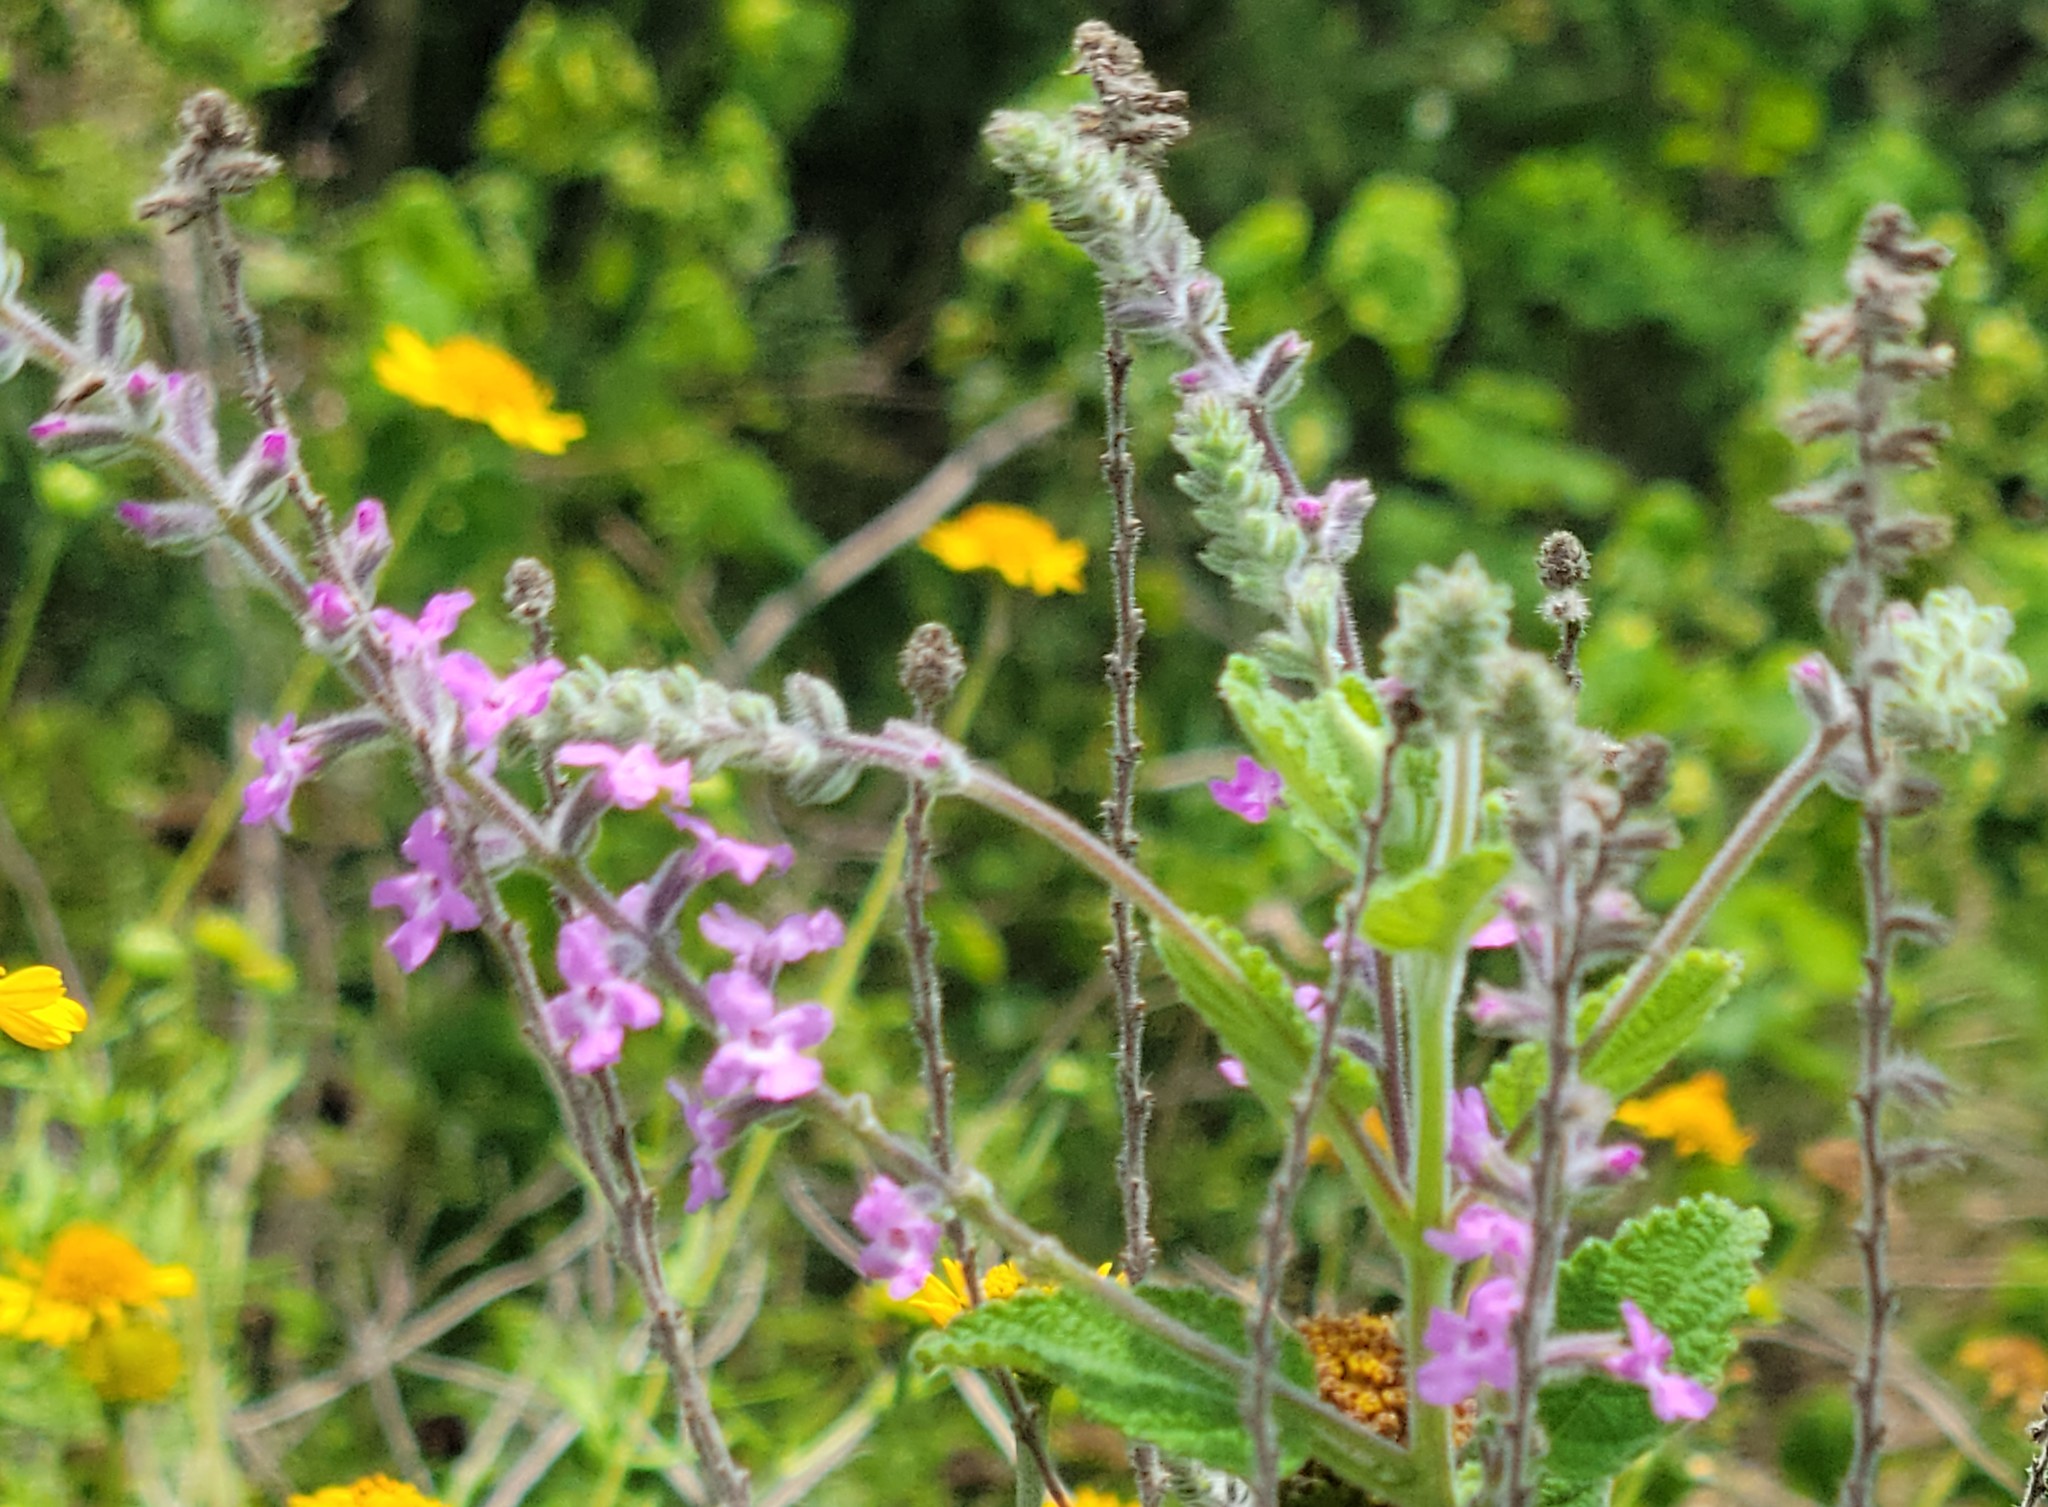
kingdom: Plantae
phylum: Tracheophyta
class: Magnoliopsida
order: Lamiales
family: Verbenaceae
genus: Aloysia
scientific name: Aloysia macrostachya
